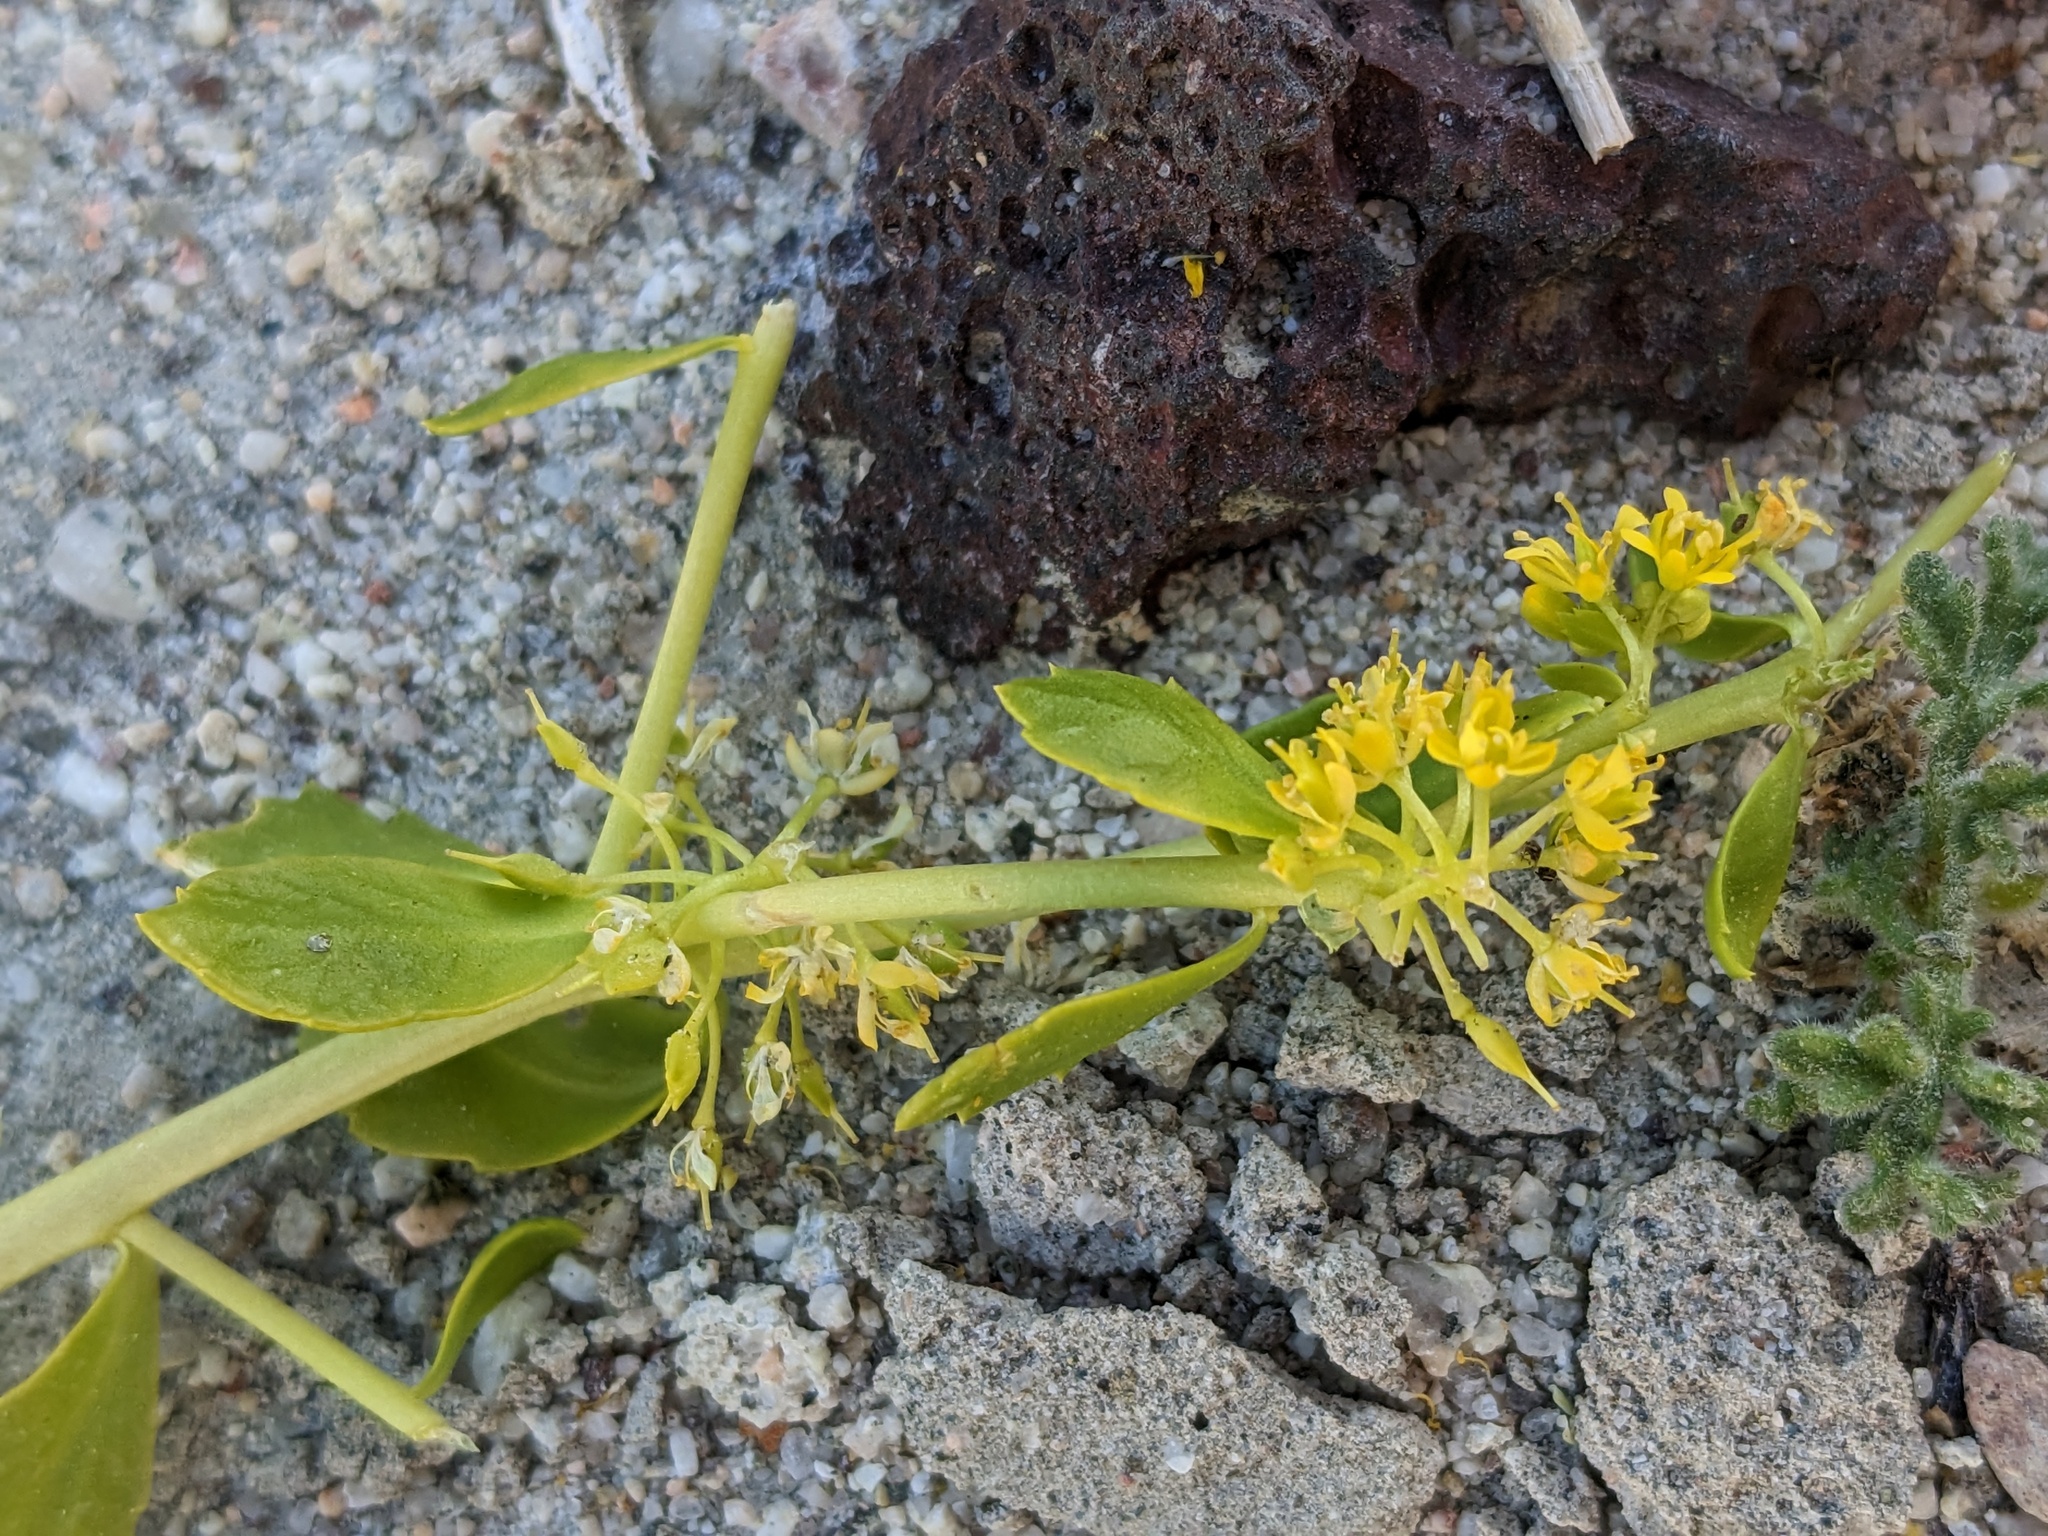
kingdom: Plantae
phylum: Tracheophyta
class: Magnoliopsida
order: Brassicales
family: Brassicaceae
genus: Lepidium
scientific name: Lepidium flavum
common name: Yellow pepperwort
